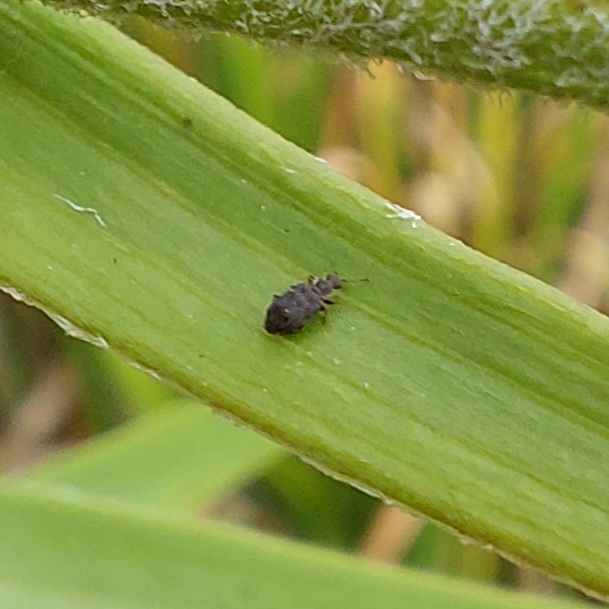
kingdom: Animalia
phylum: Arthropoda
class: Insecta
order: Coleoptera
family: Latridiidae
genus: Cartodere
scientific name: Cartodere nodifer
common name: Humpbacked minute scavenger beetle
